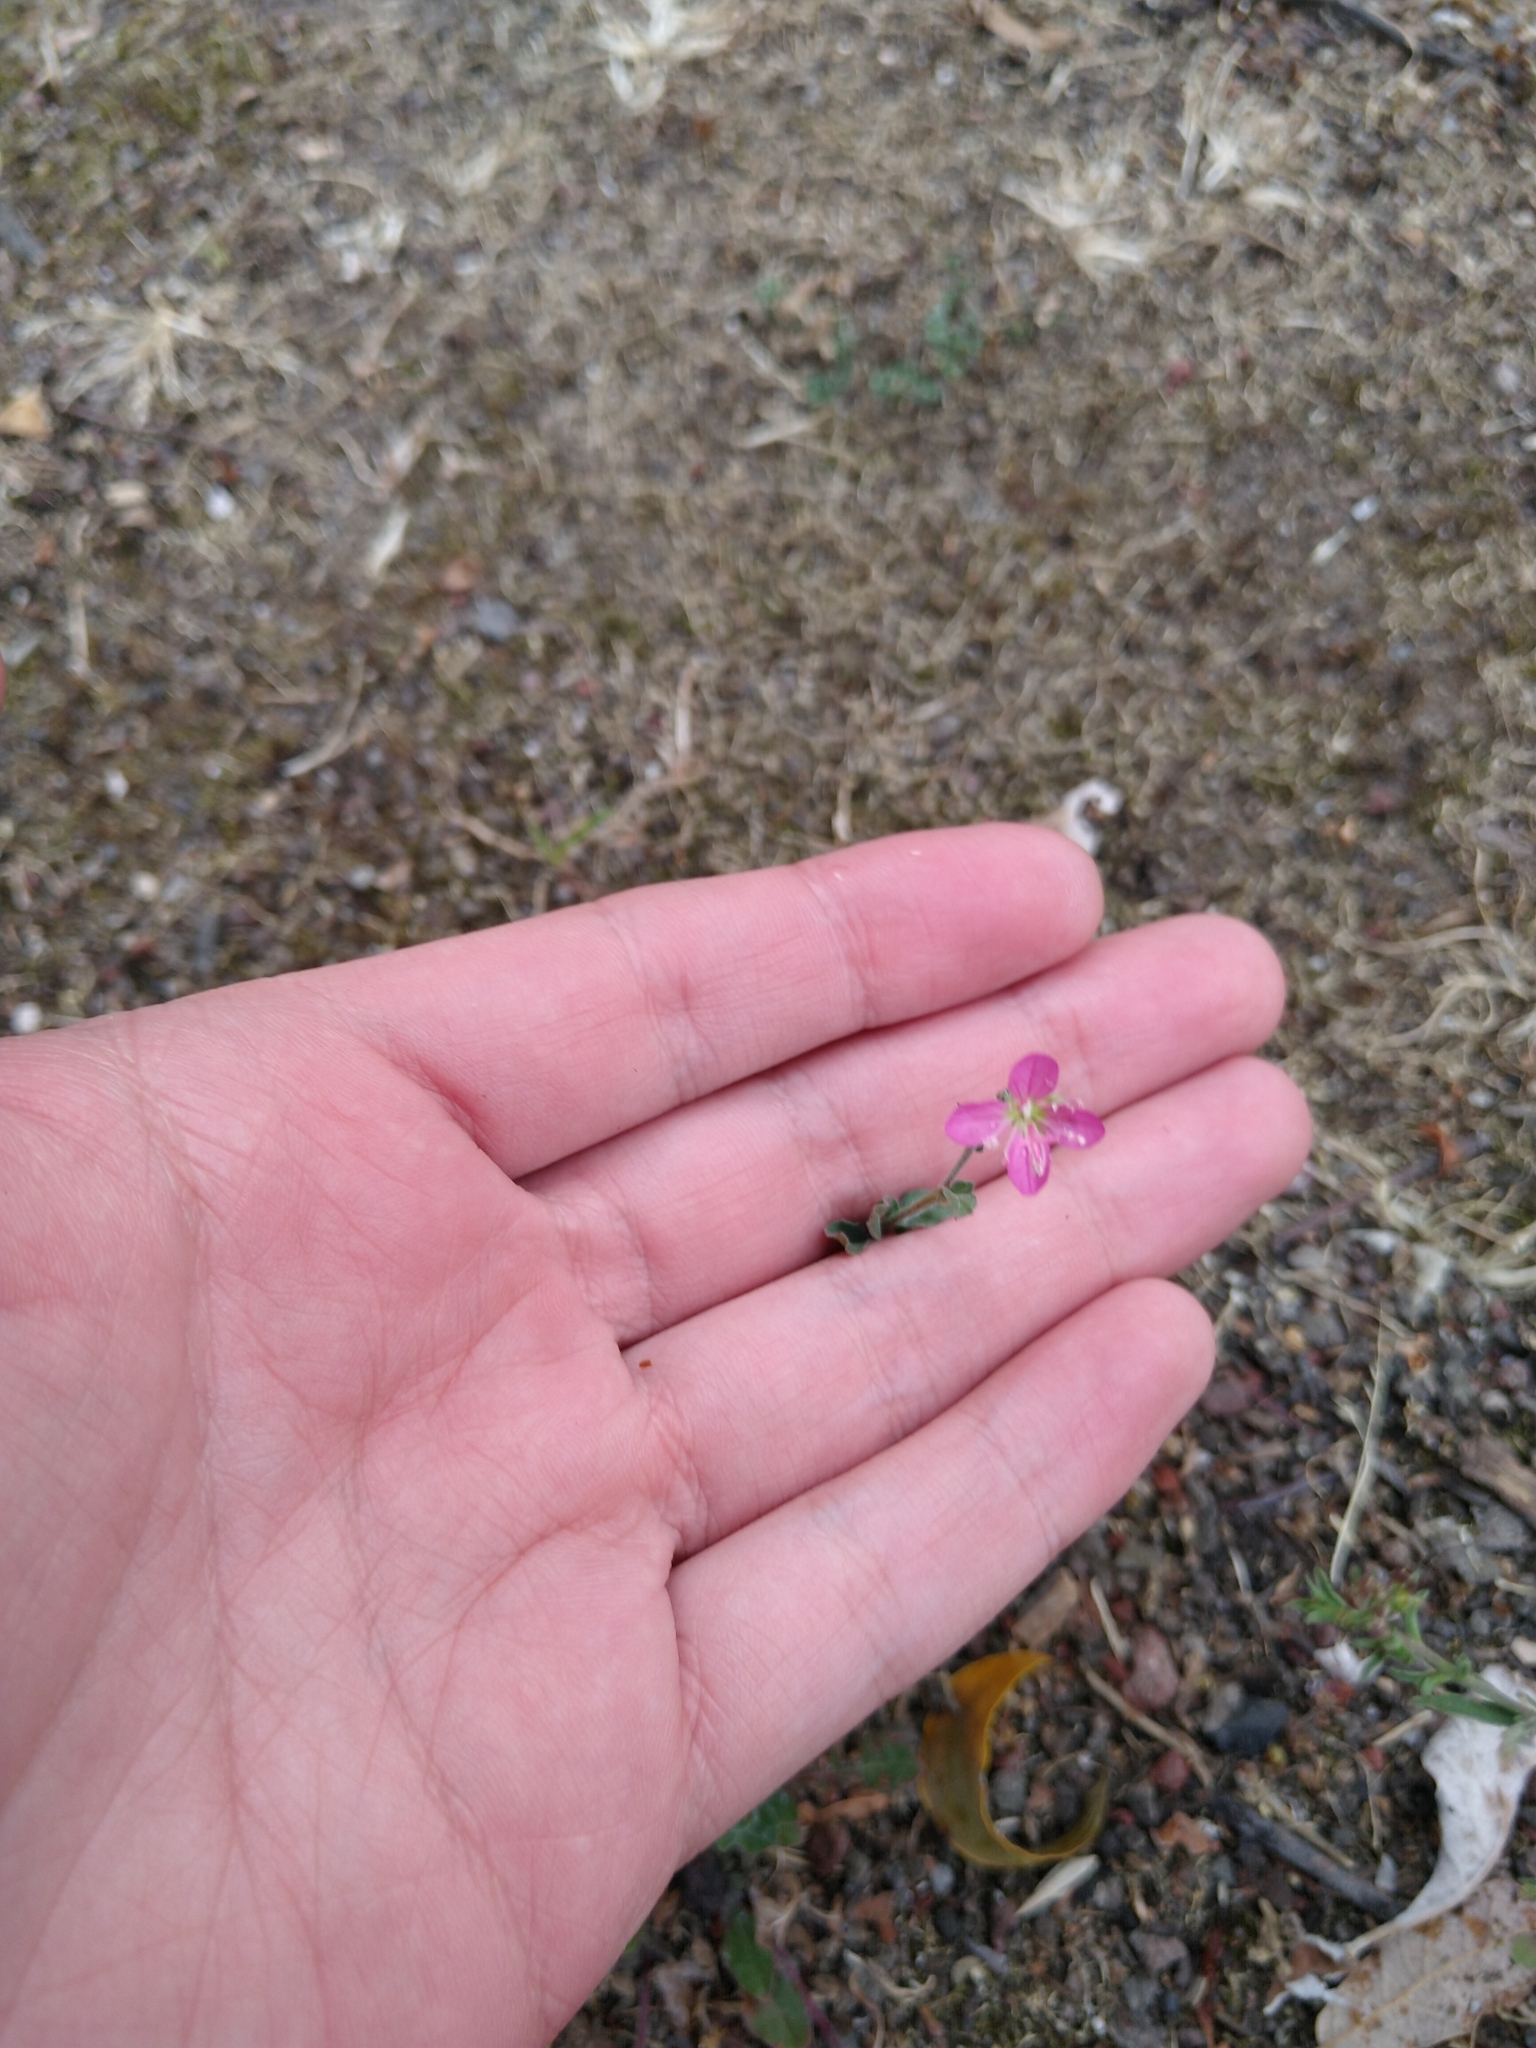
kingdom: Plantae
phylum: Tracheophyta
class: Magnoliopsida
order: Myrtales
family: Onagraceae
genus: Oenothera
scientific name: Oenothera rosea
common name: Rosy evening-primrose
